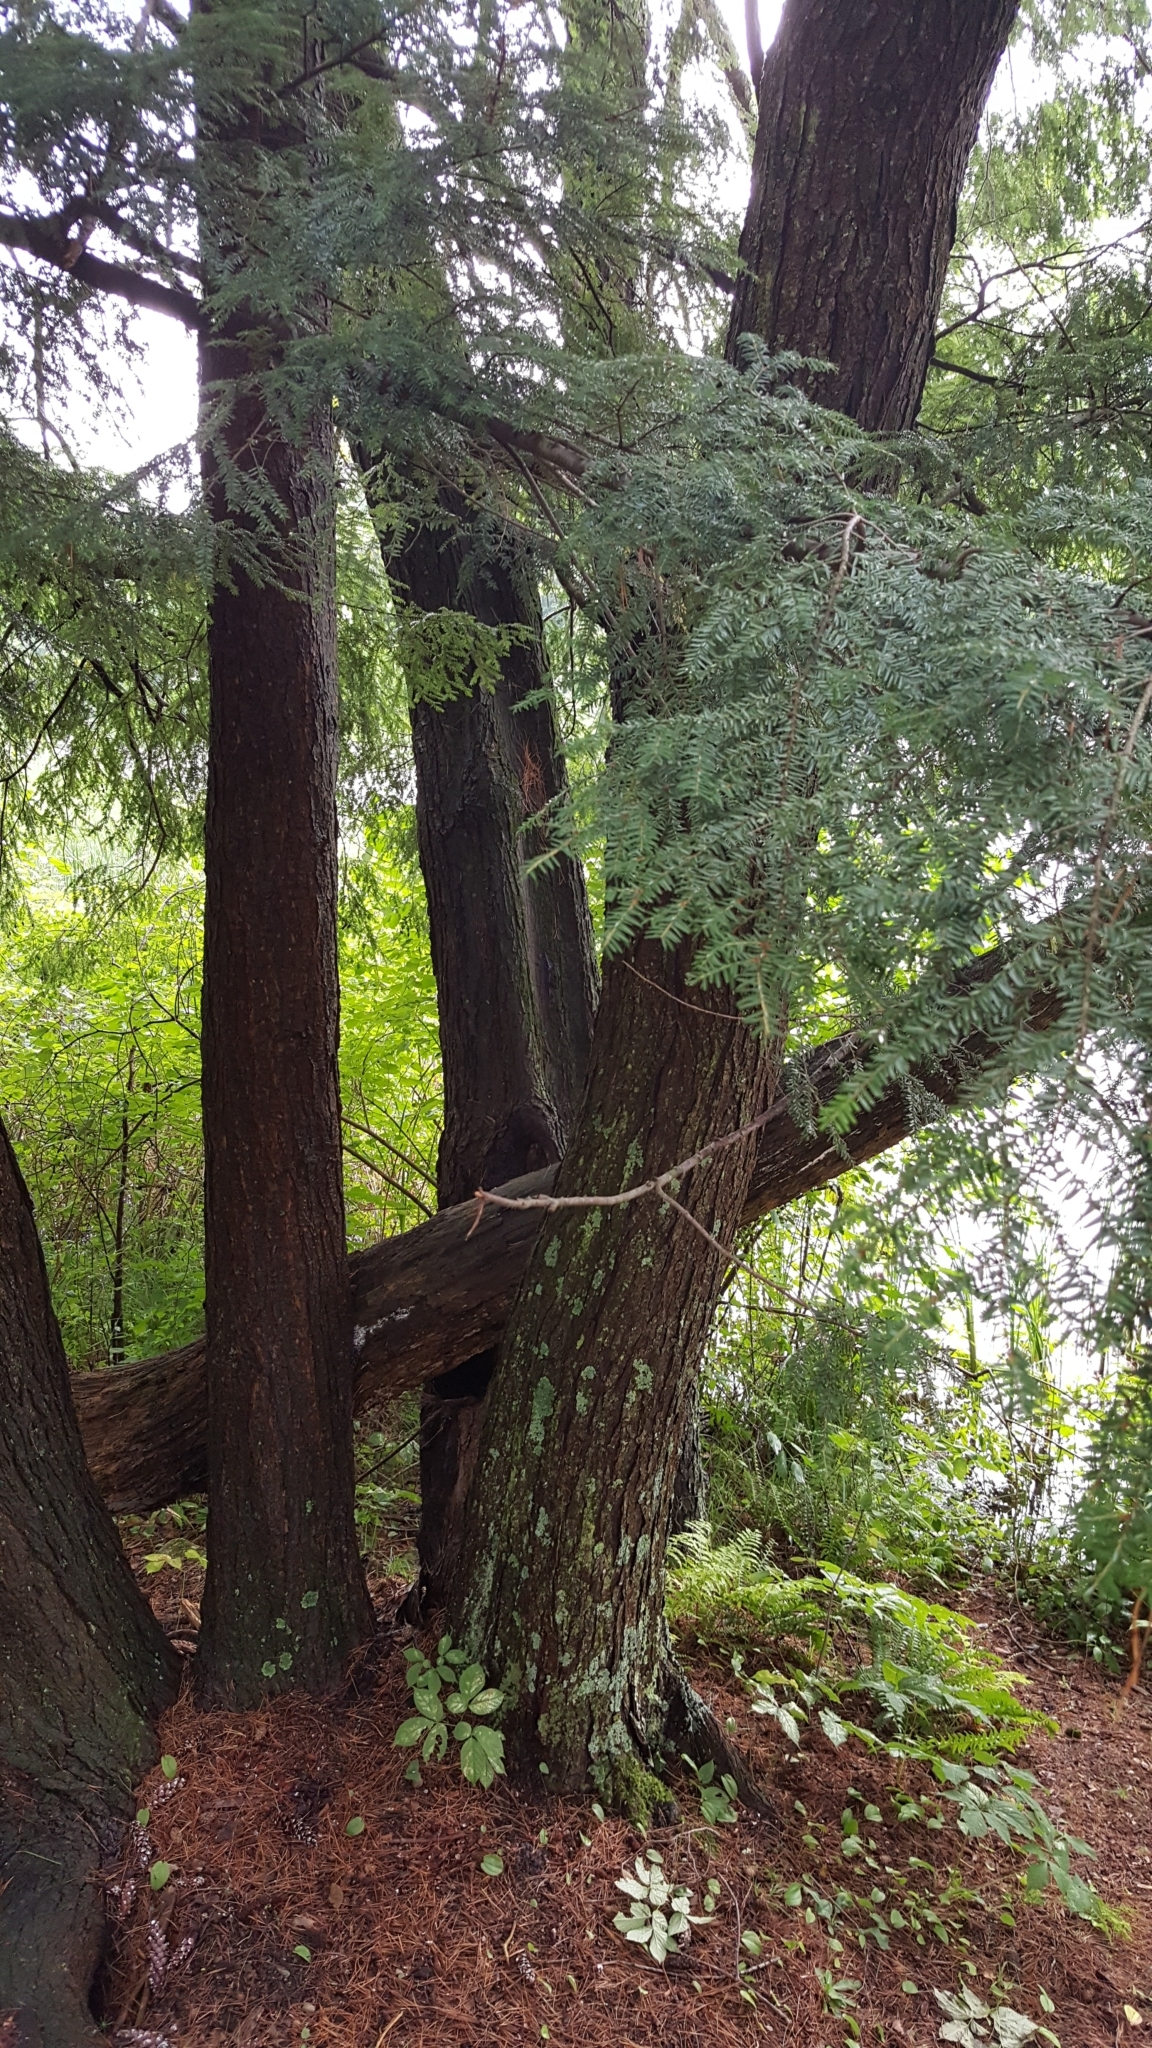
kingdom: Plantae
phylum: Tracheophyta
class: Pinopsida
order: Pinales
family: Pinaceae
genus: Tsuga
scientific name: Tsuga canadensis
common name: Eastern hemlock
